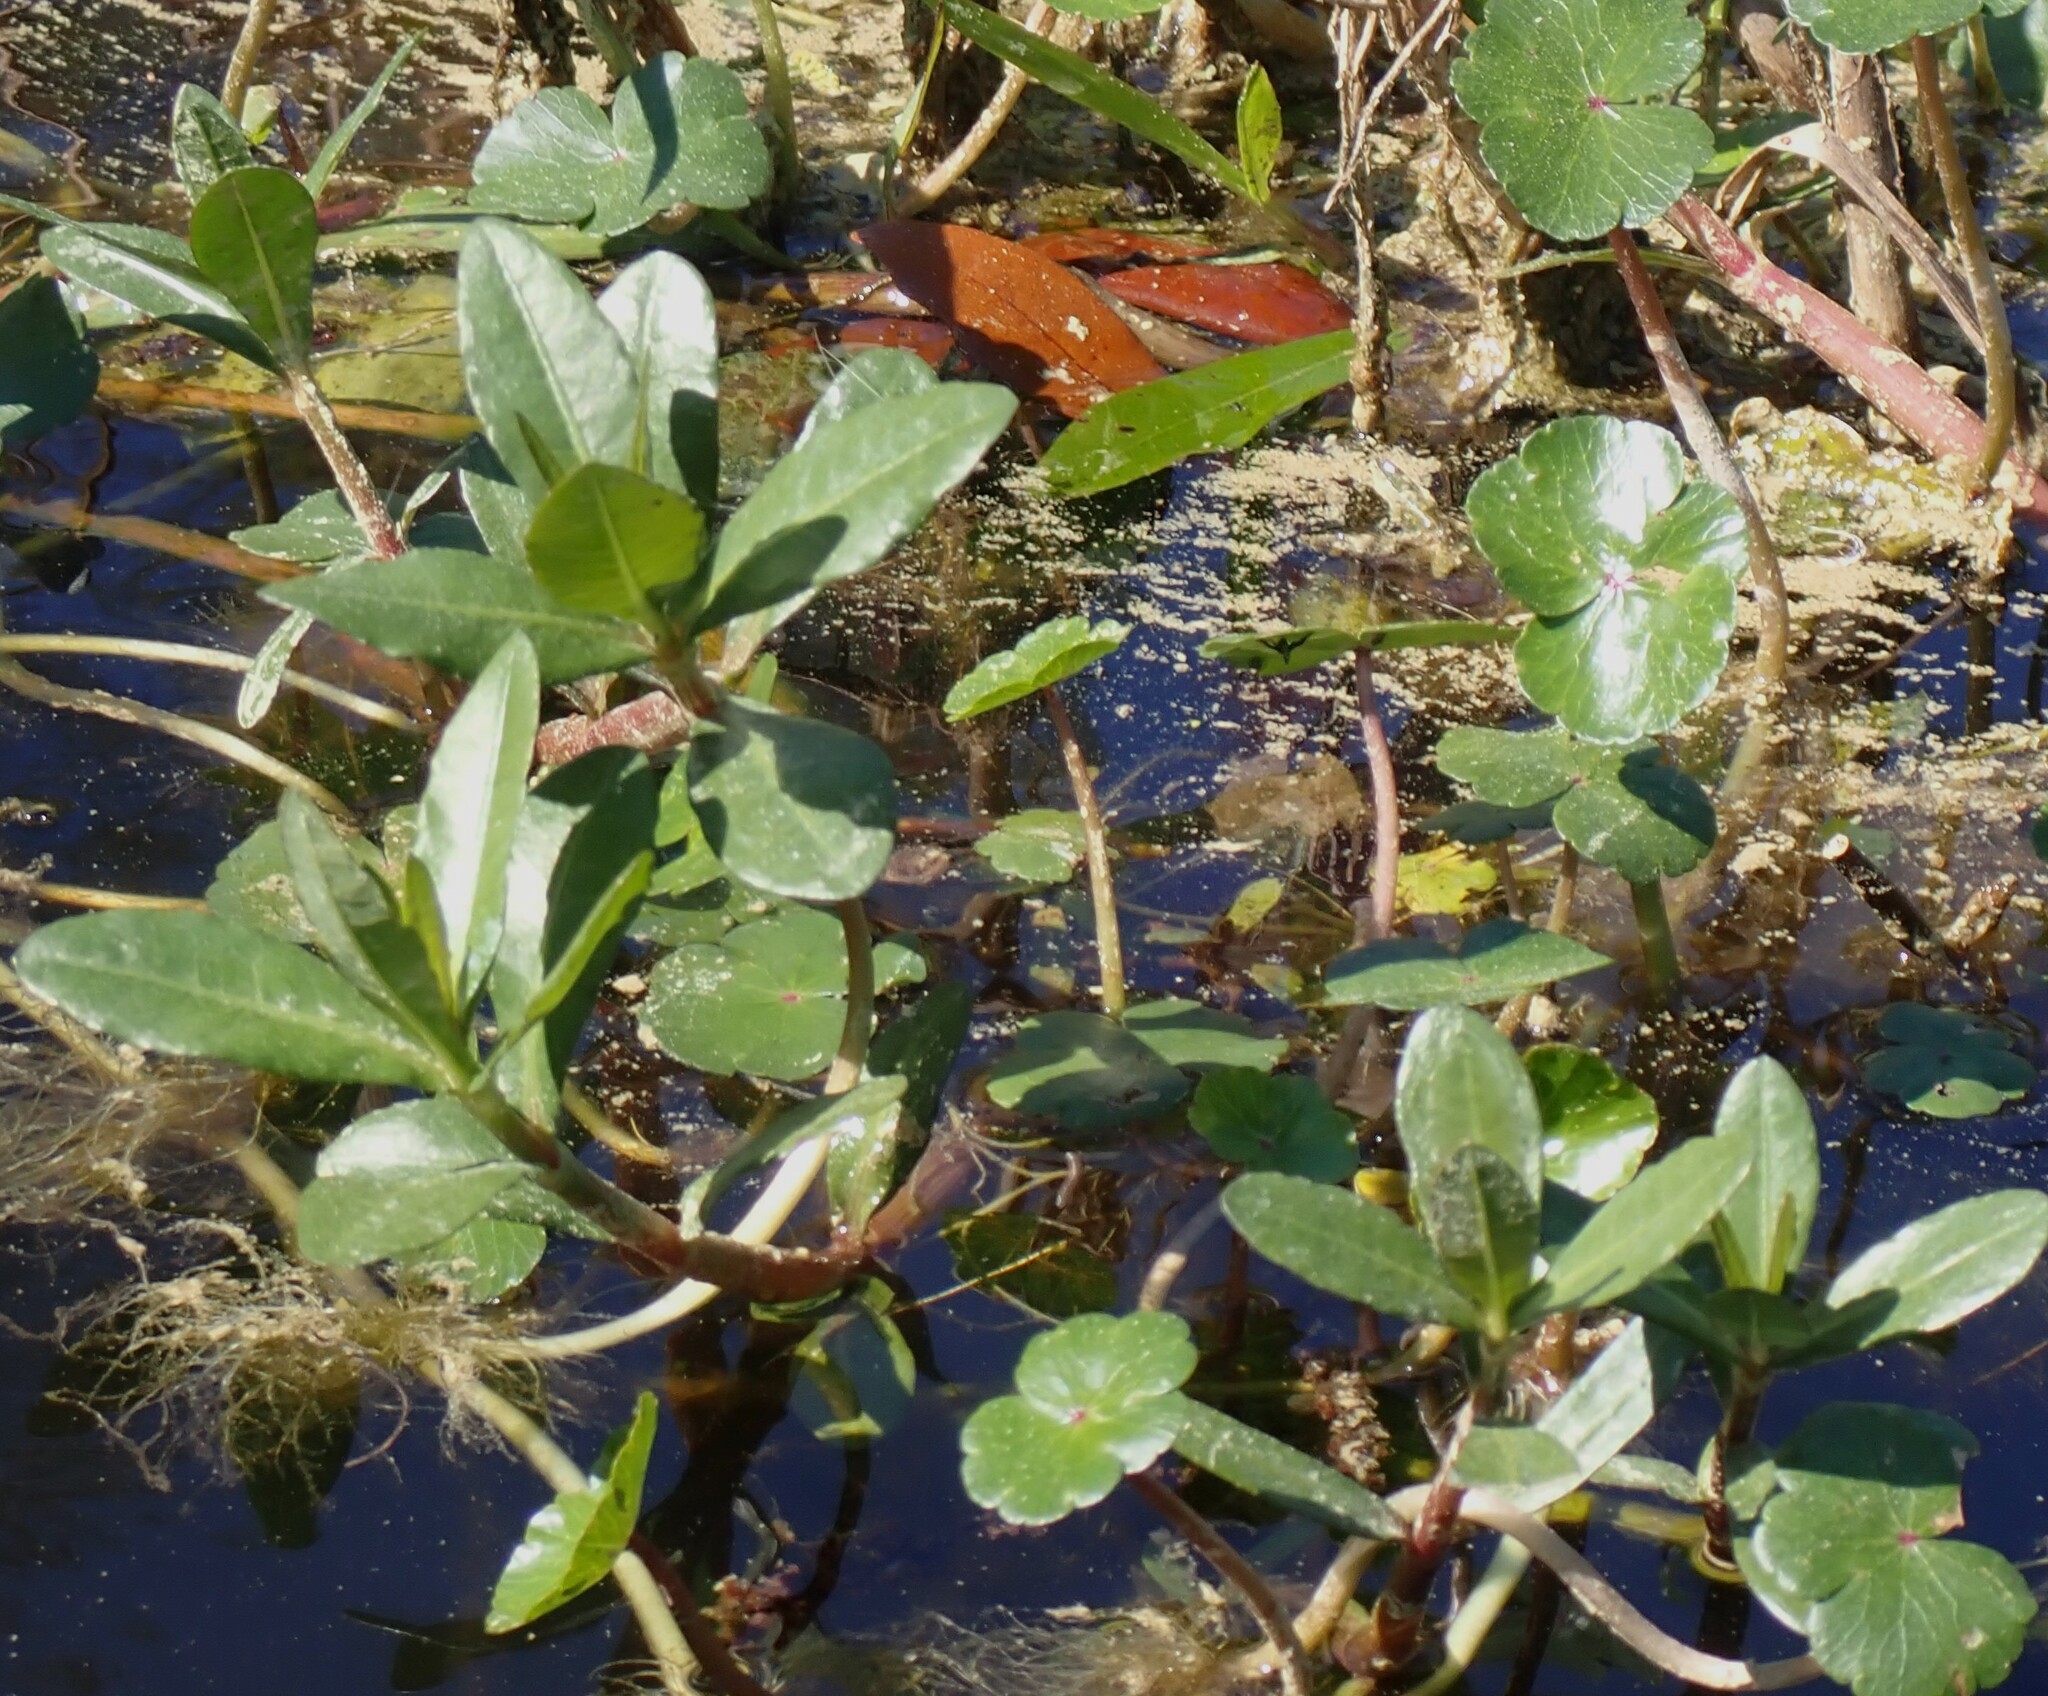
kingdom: Plantae
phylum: Tracheophyta
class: Magnoliopsida
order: Caryophyllales
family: Amaranthaceae
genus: Alternanthera
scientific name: Alternanthera philoxeroides
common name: Alligatorweed
